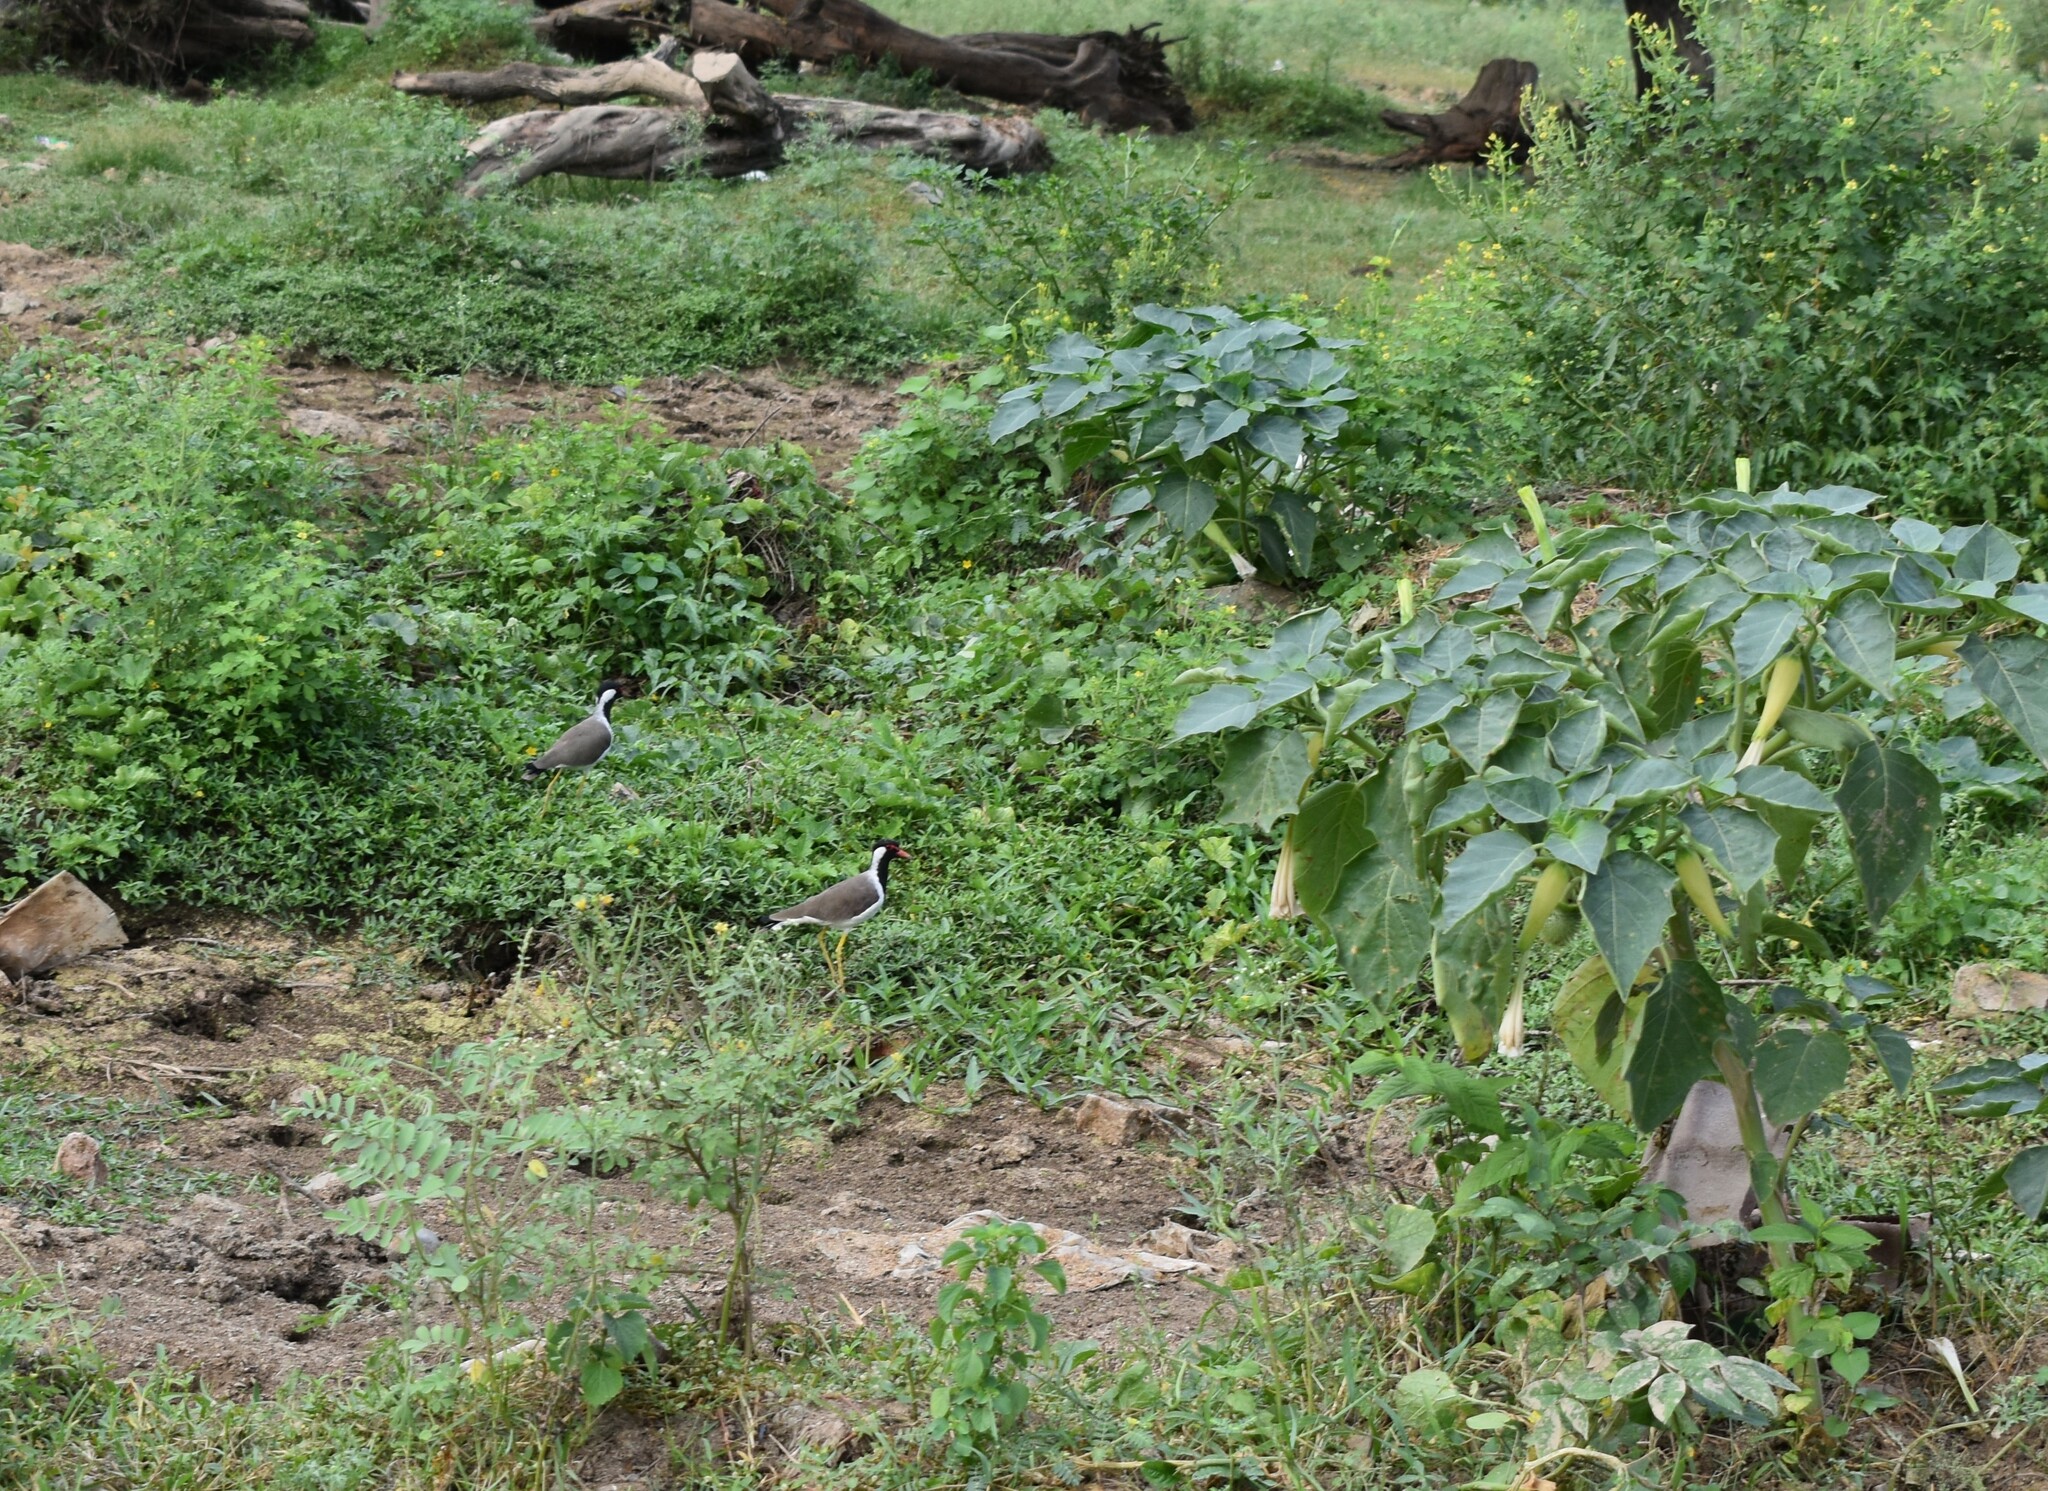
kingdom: Animalia
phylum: Chordata
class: Aves
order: Charadriiformes
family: Charadriidae
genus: Vanellus
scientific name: Vanellus indicus
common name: Red-wattled lapwing
